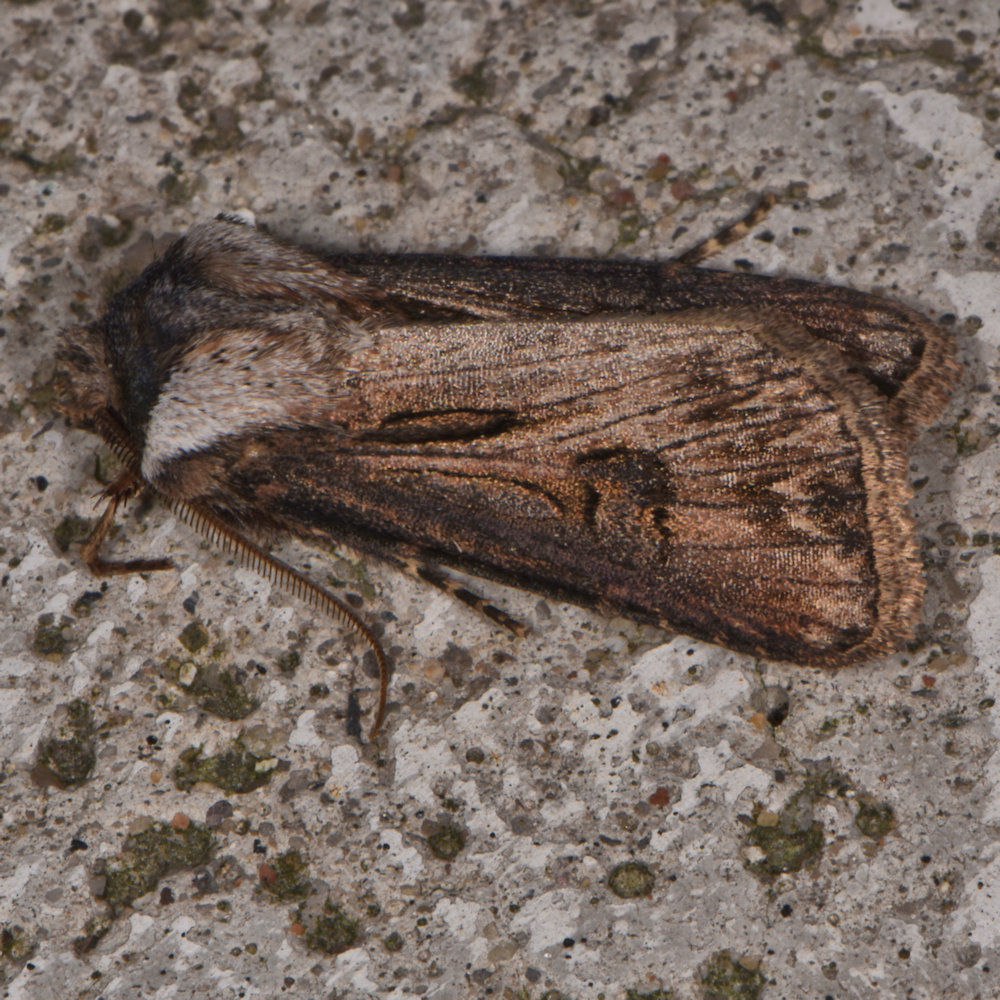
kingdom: Animalia
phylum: Arthropoda
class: Insecta
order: Lepidoptera
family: Noctuidae
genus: Agrotis
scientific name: Agrotis venerabilis
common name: Venerable dart
